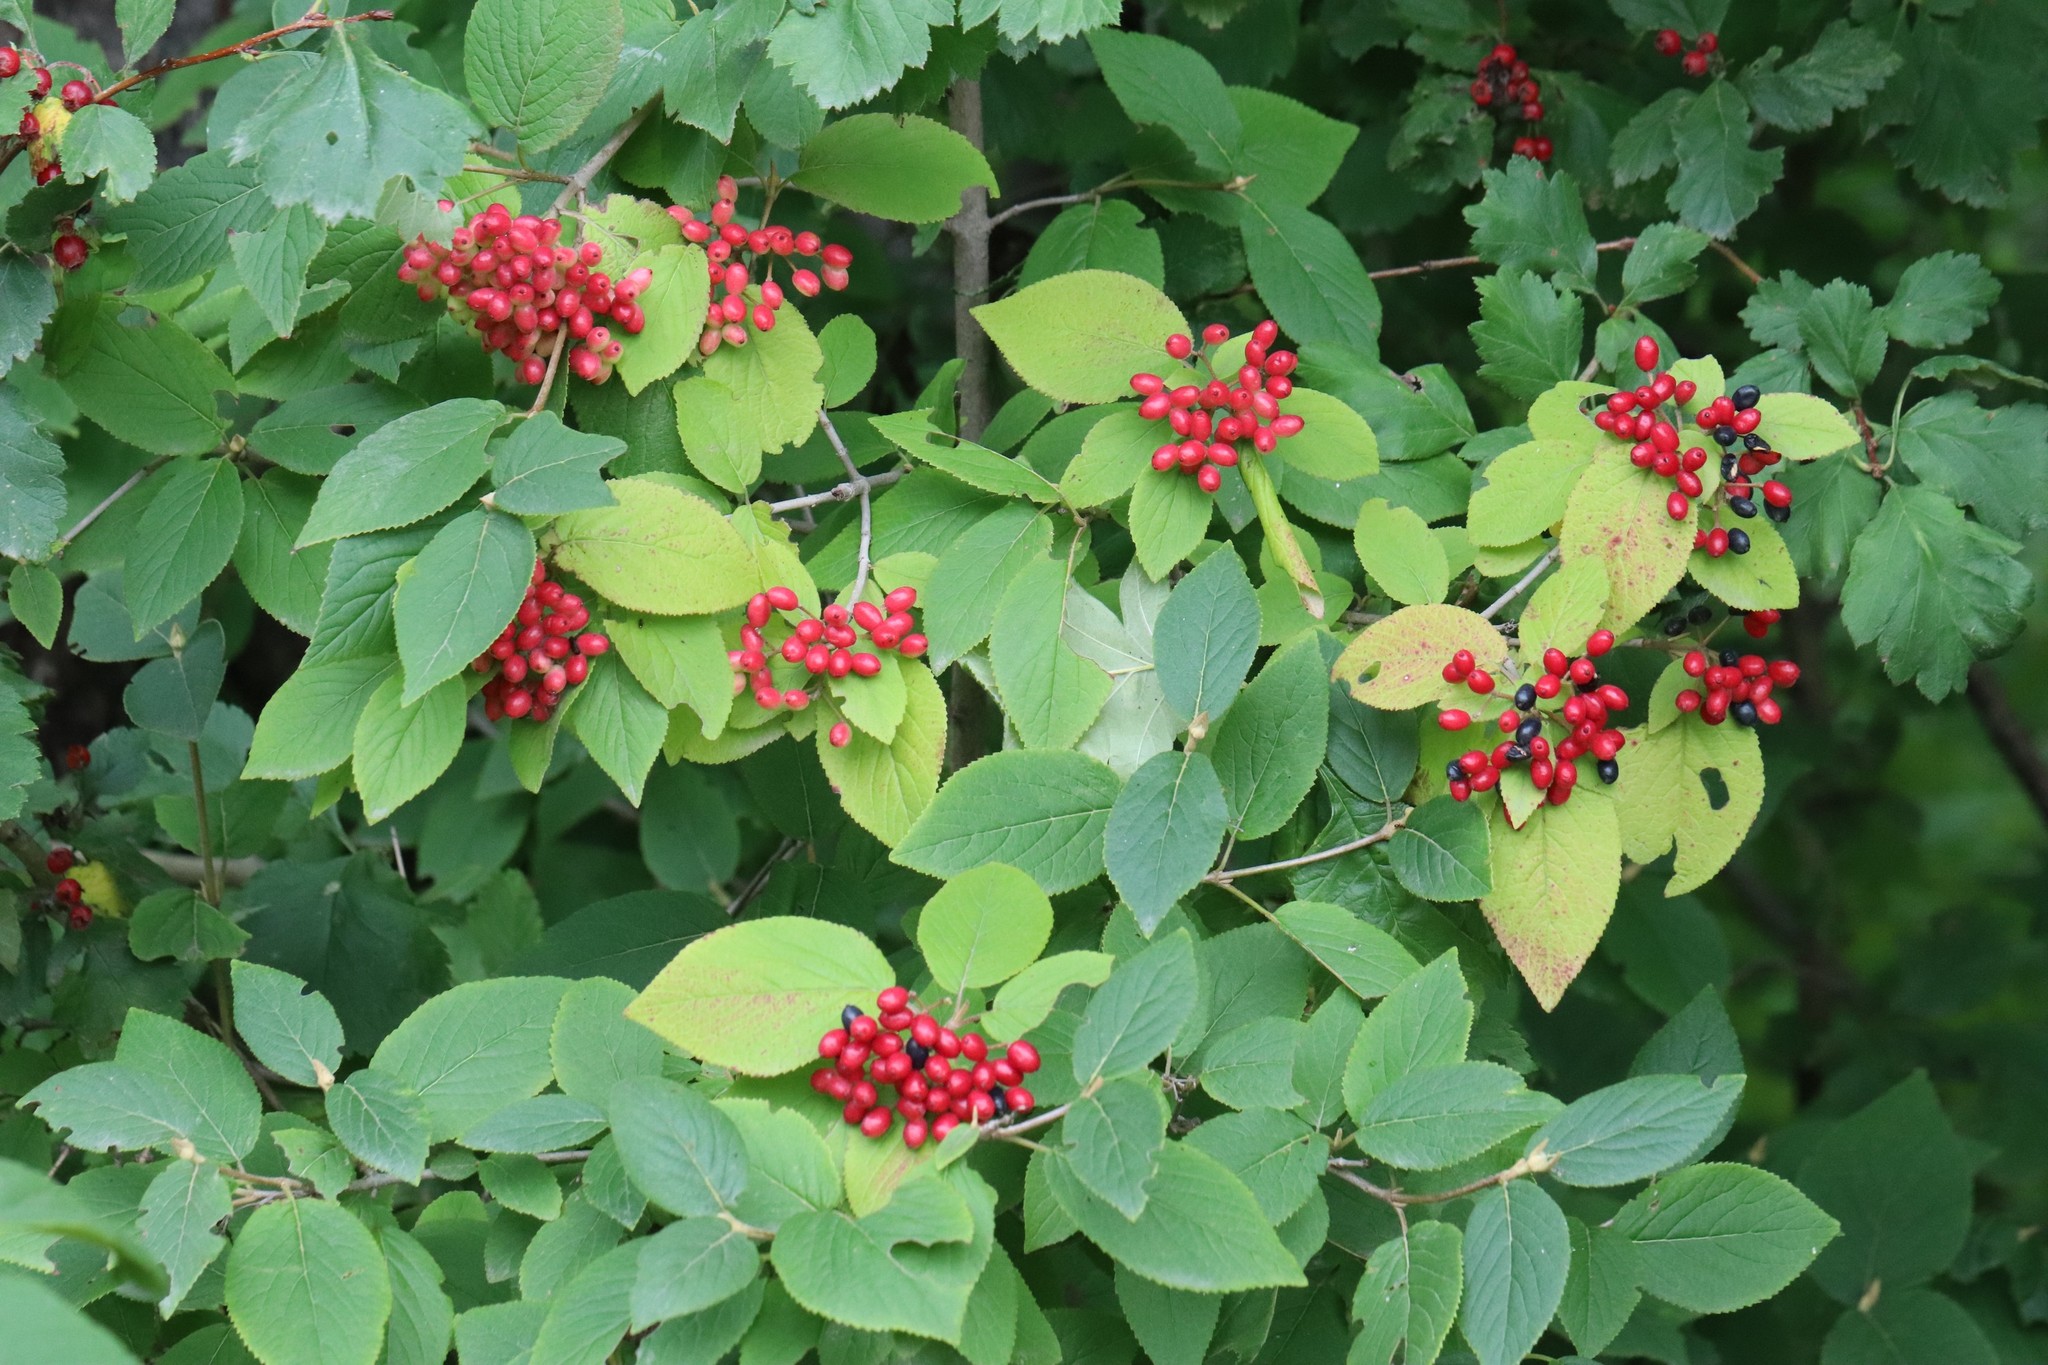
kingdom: Plantae
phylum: Tracheophyta
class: Magnoliopsida
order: Dipsacales
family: Viburnaceae
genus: Viburnum
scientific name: Viburnum burejaeticum
